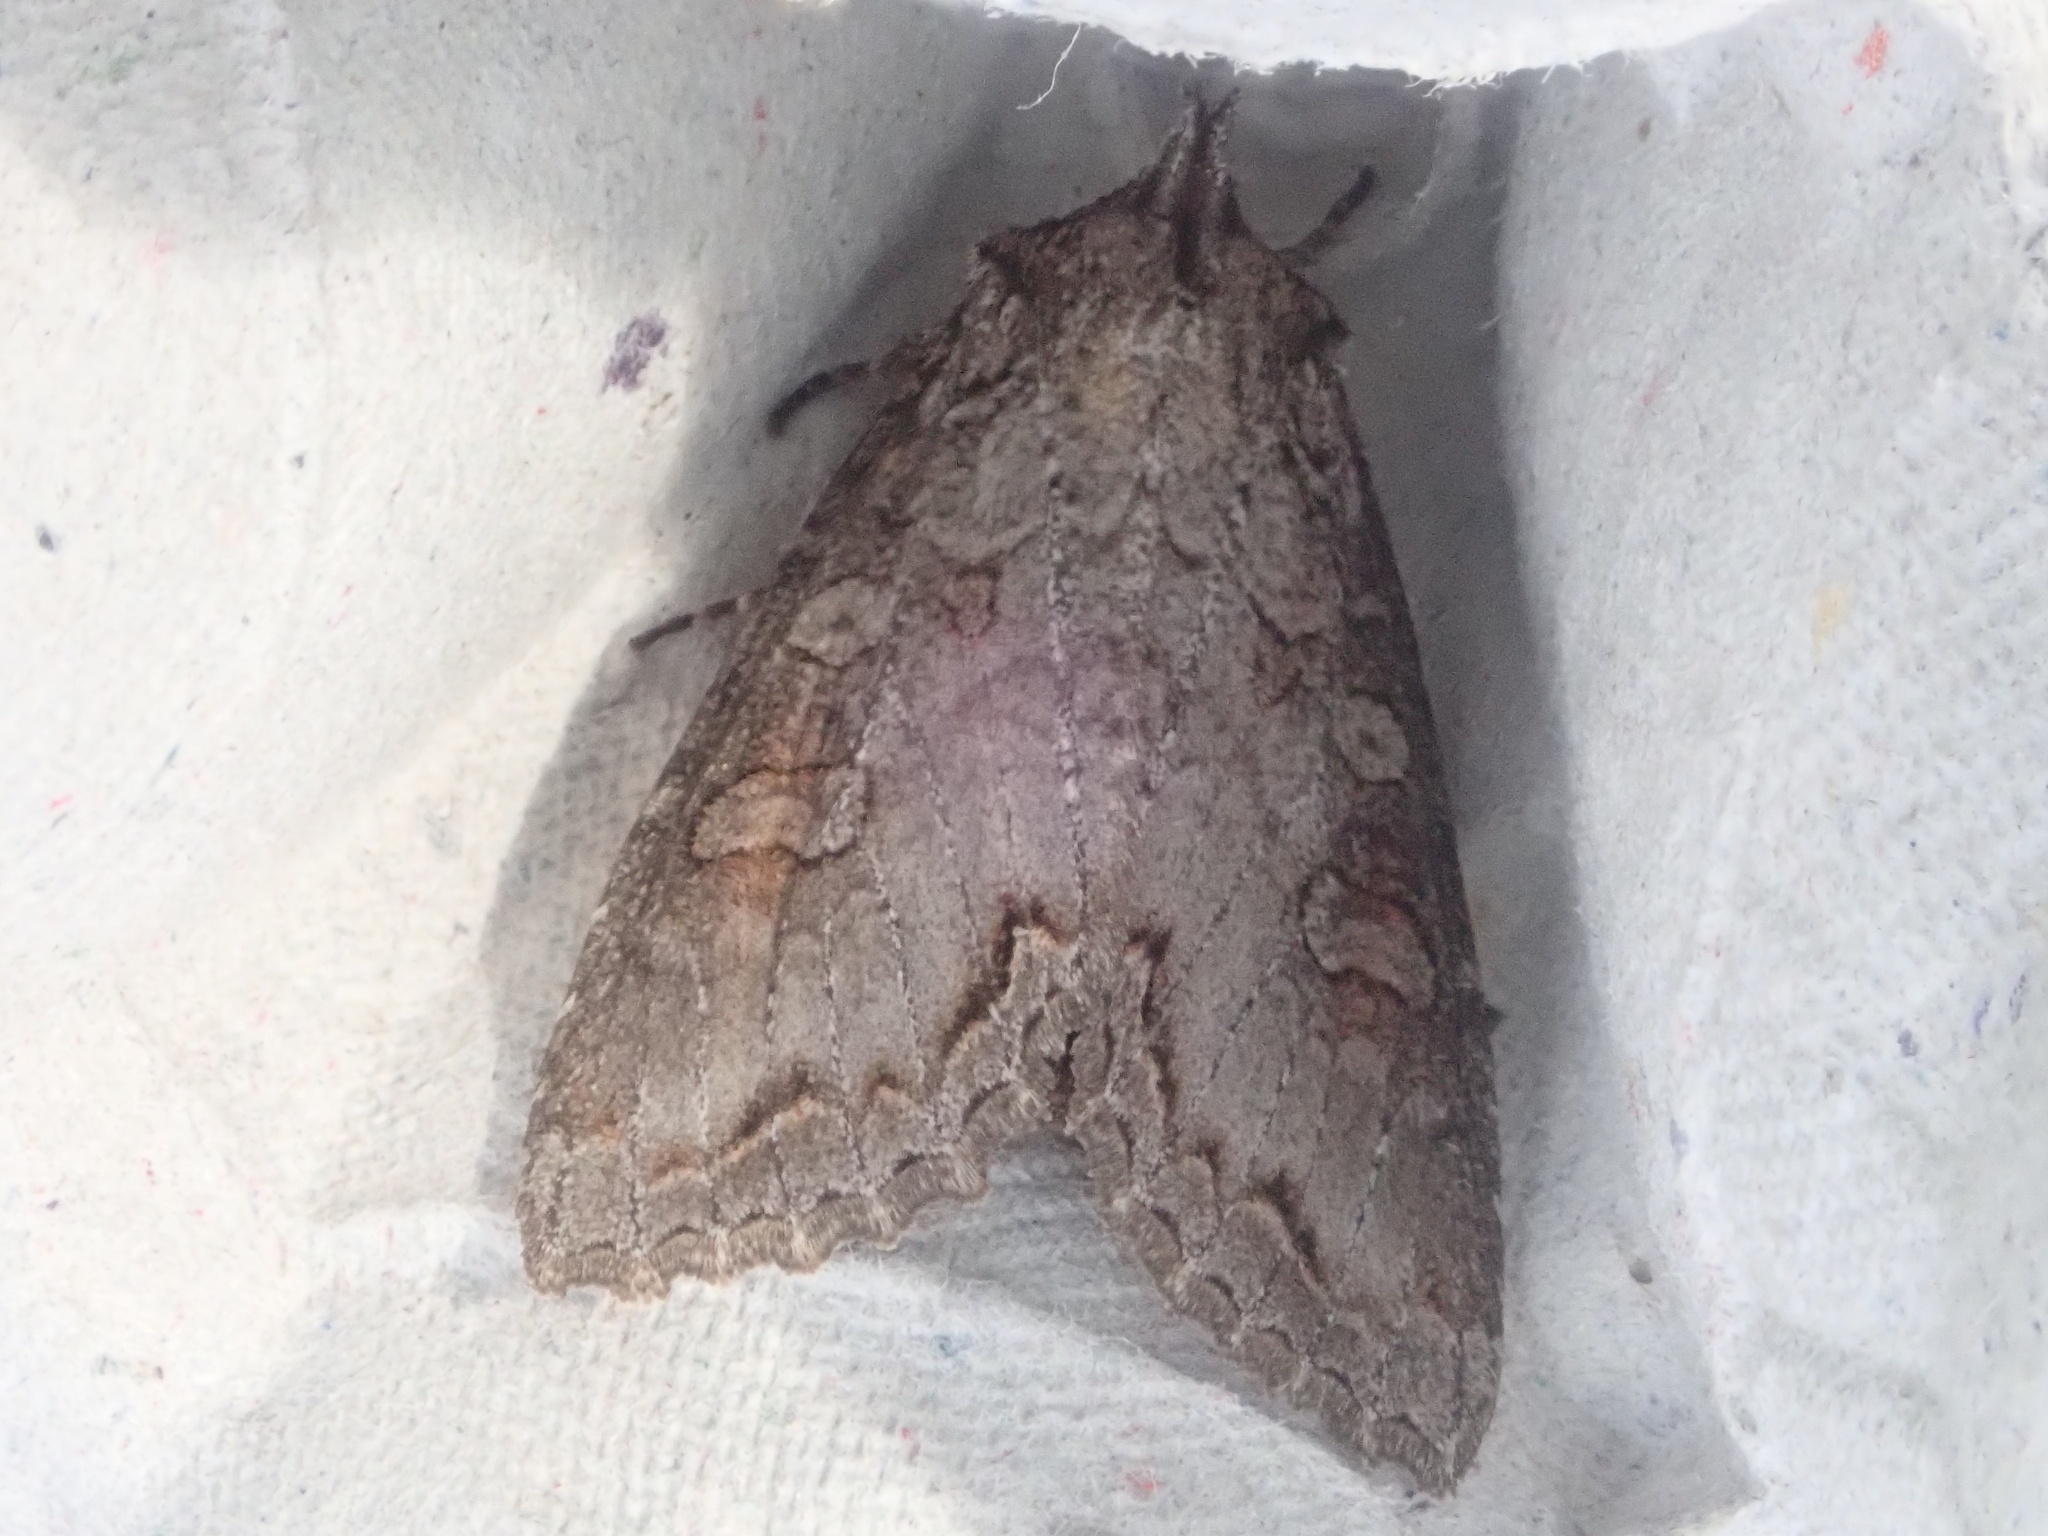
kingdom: Animalia
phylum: Arthropoda
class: Insecta
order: Lepidoptera
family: Noctuidae
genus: Polia
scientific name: Polia purpurissata
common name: Purple arches moth
